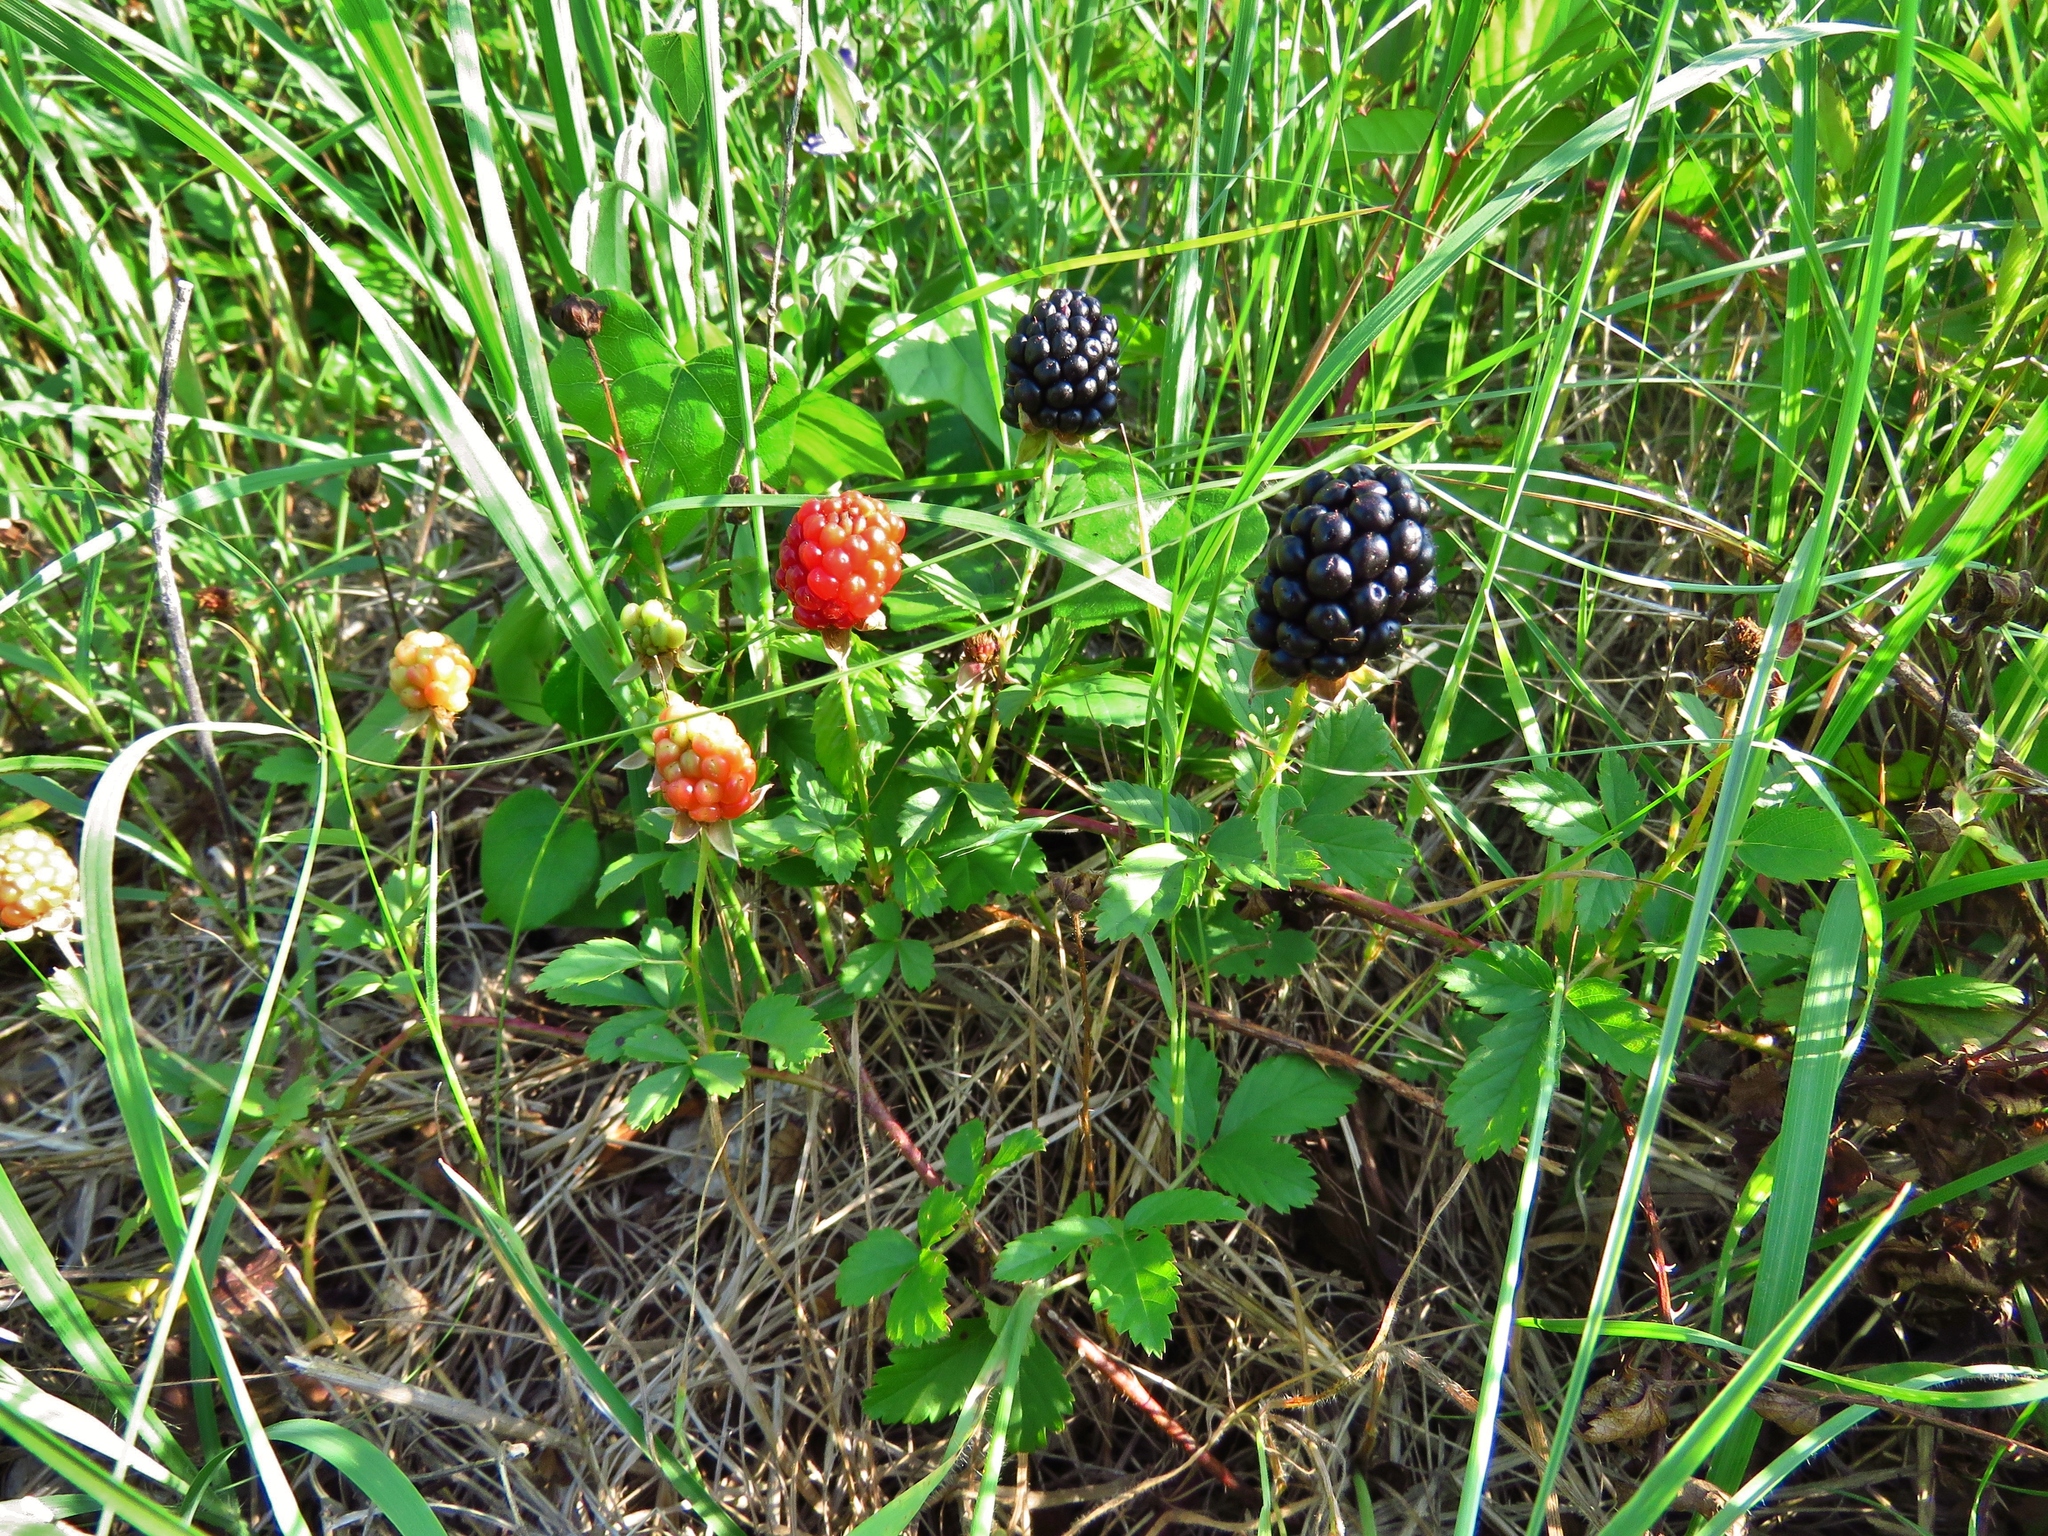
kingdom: Plantae
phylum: Tracheophyta
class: Magnoliopsida
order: Rosales
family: Rosaceae
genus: Rubus
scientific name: Rubus trivialis
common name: Southern dewberry
